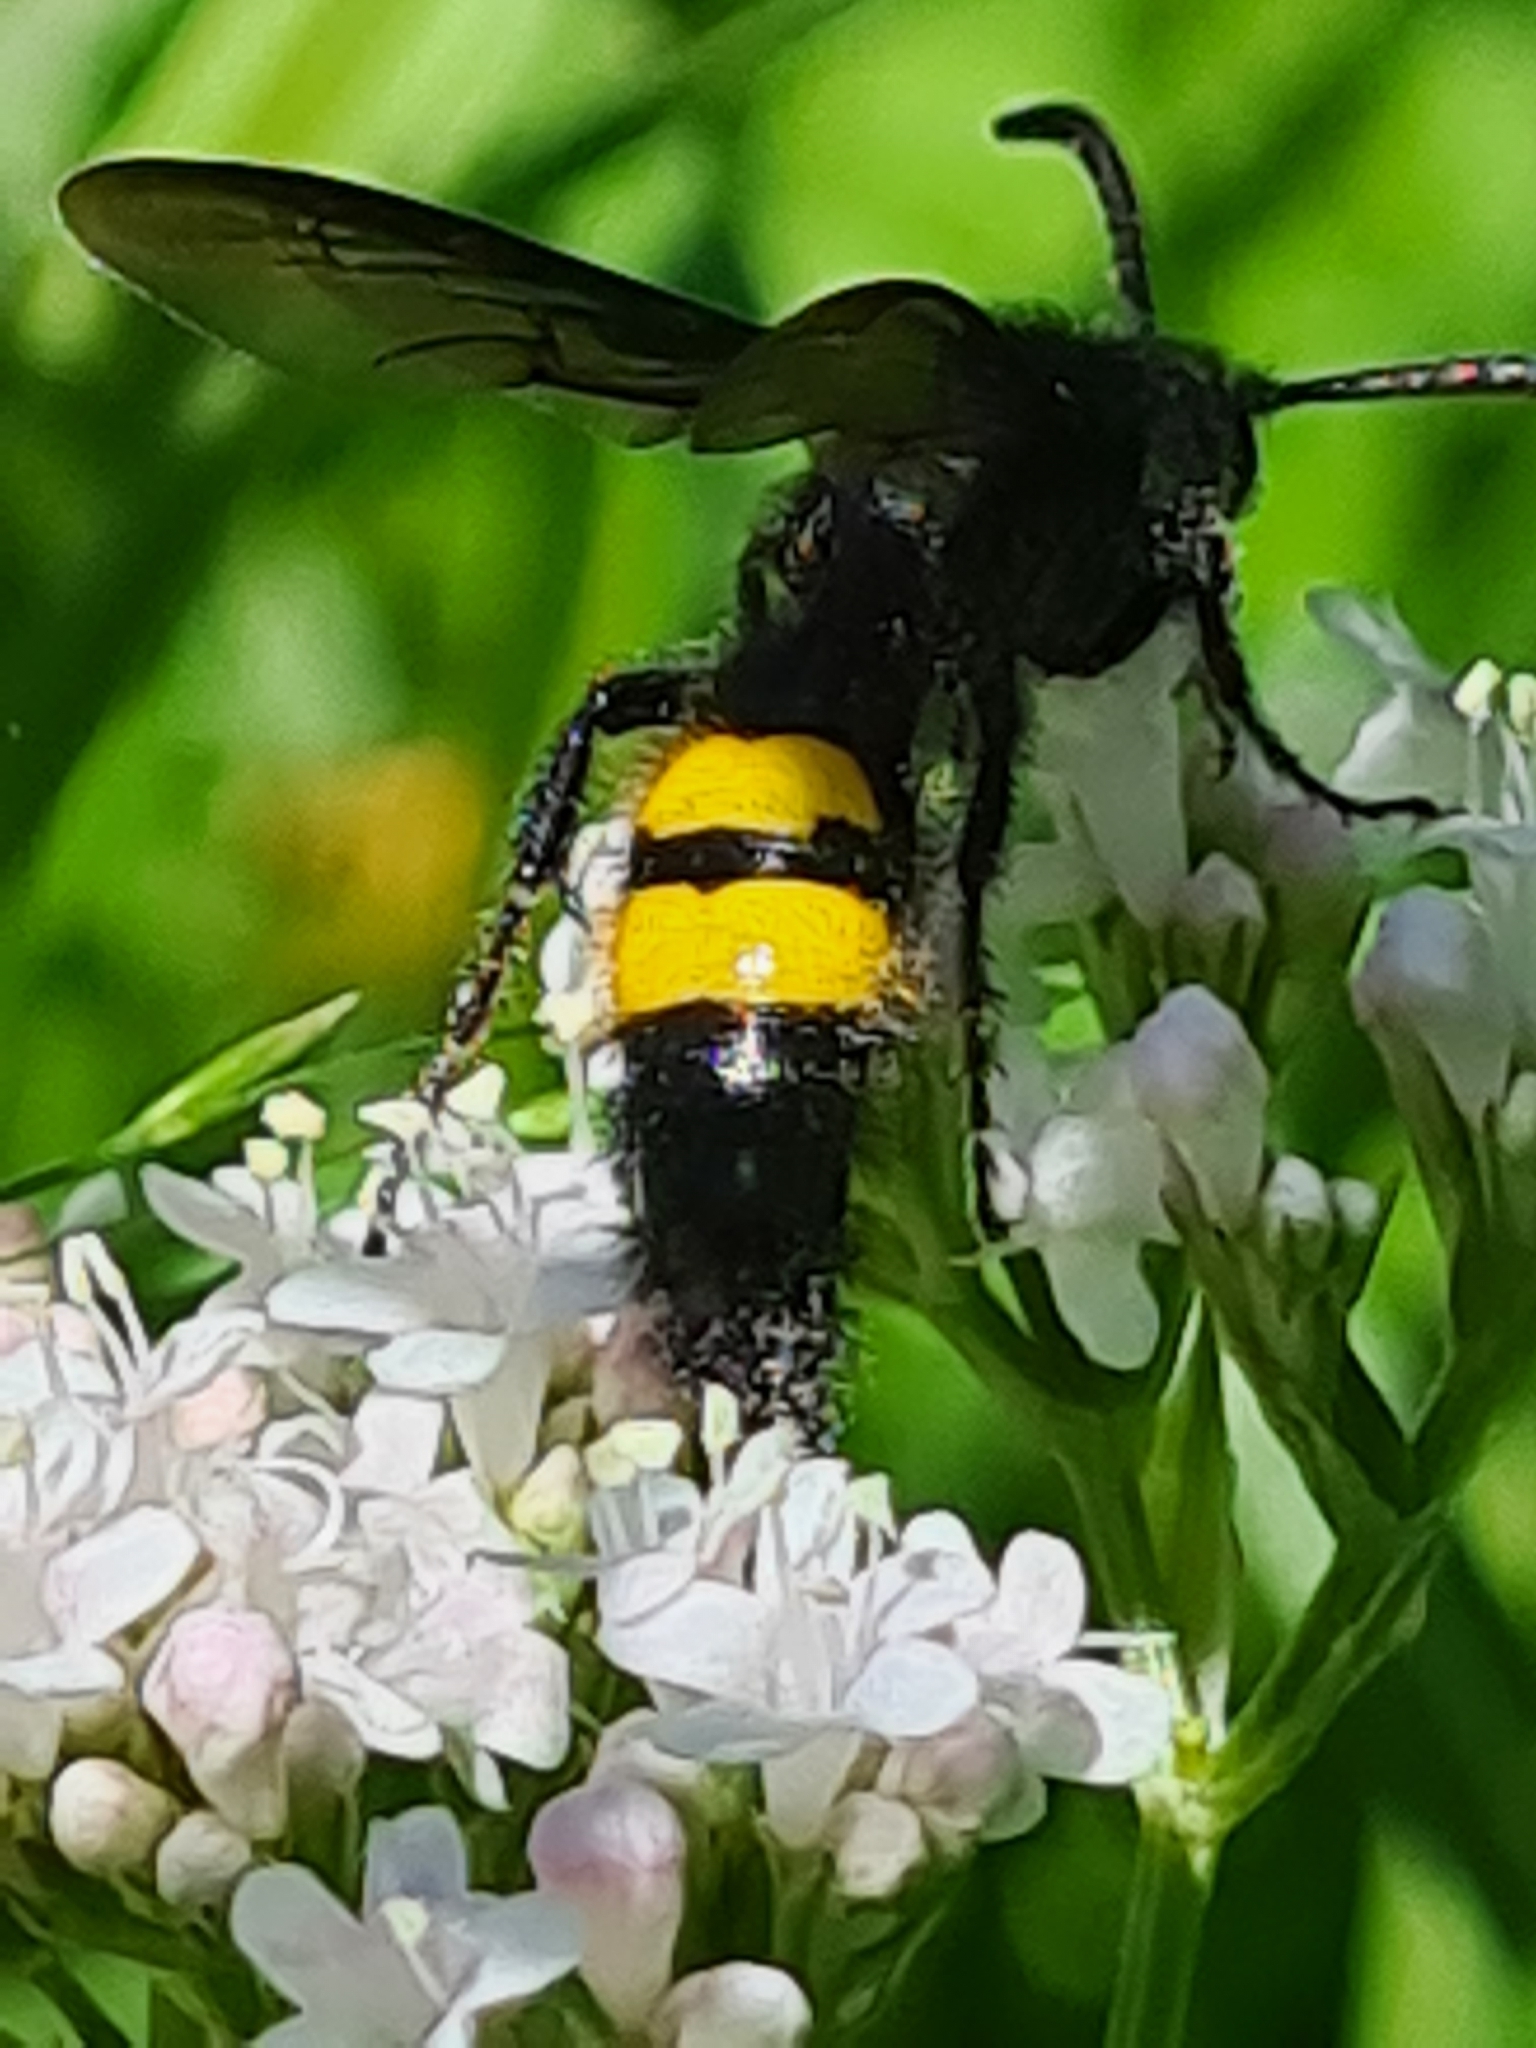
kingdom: Animalia
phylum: Arthropoda
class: Insecta
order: Hymenoptera
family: Scoliidae
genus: Scolia
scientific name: Scolia hirta
